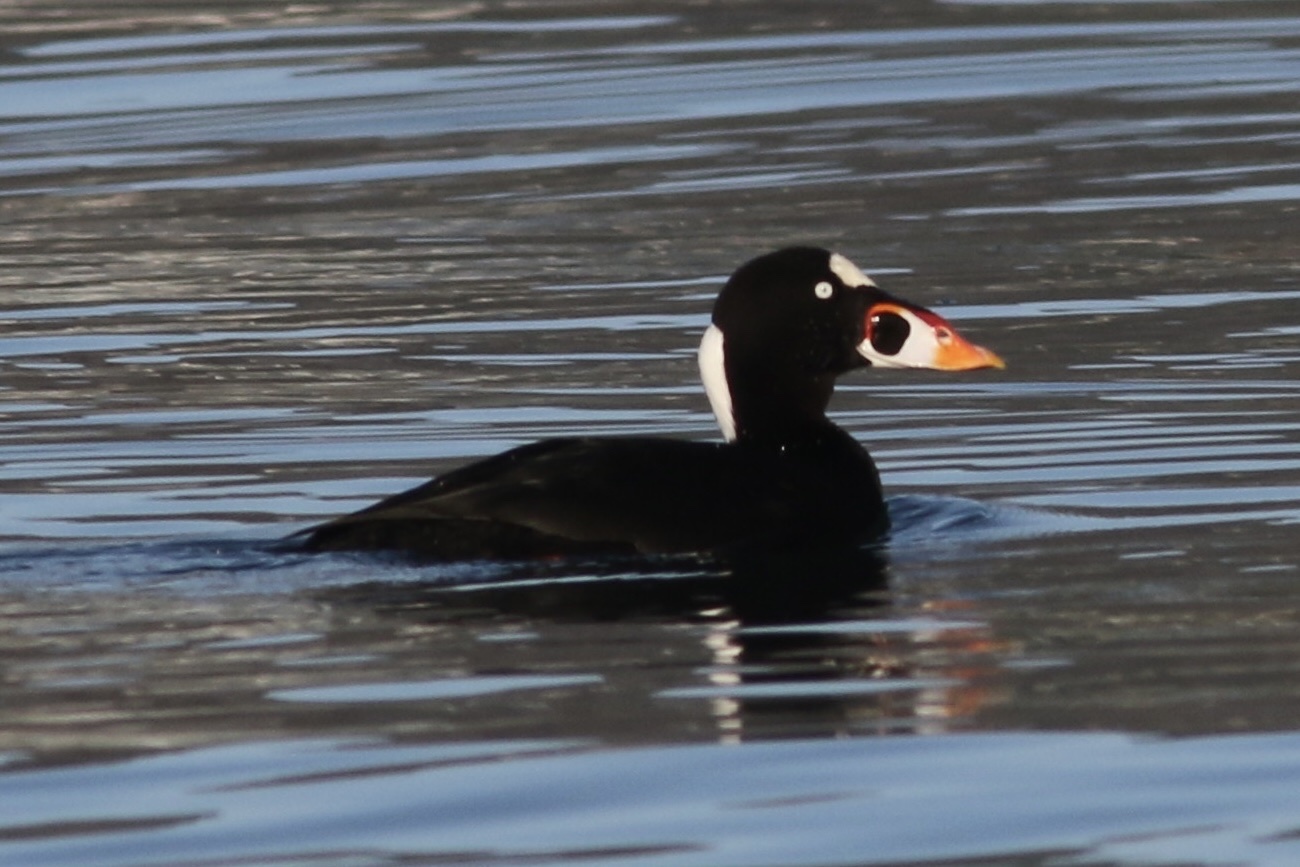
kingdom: Animalia
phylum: Chordata
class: Aves
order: Anseriformes
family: Anatidae
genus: Melanitta
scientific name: Melanitta perspicillata
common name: Surf scoter
